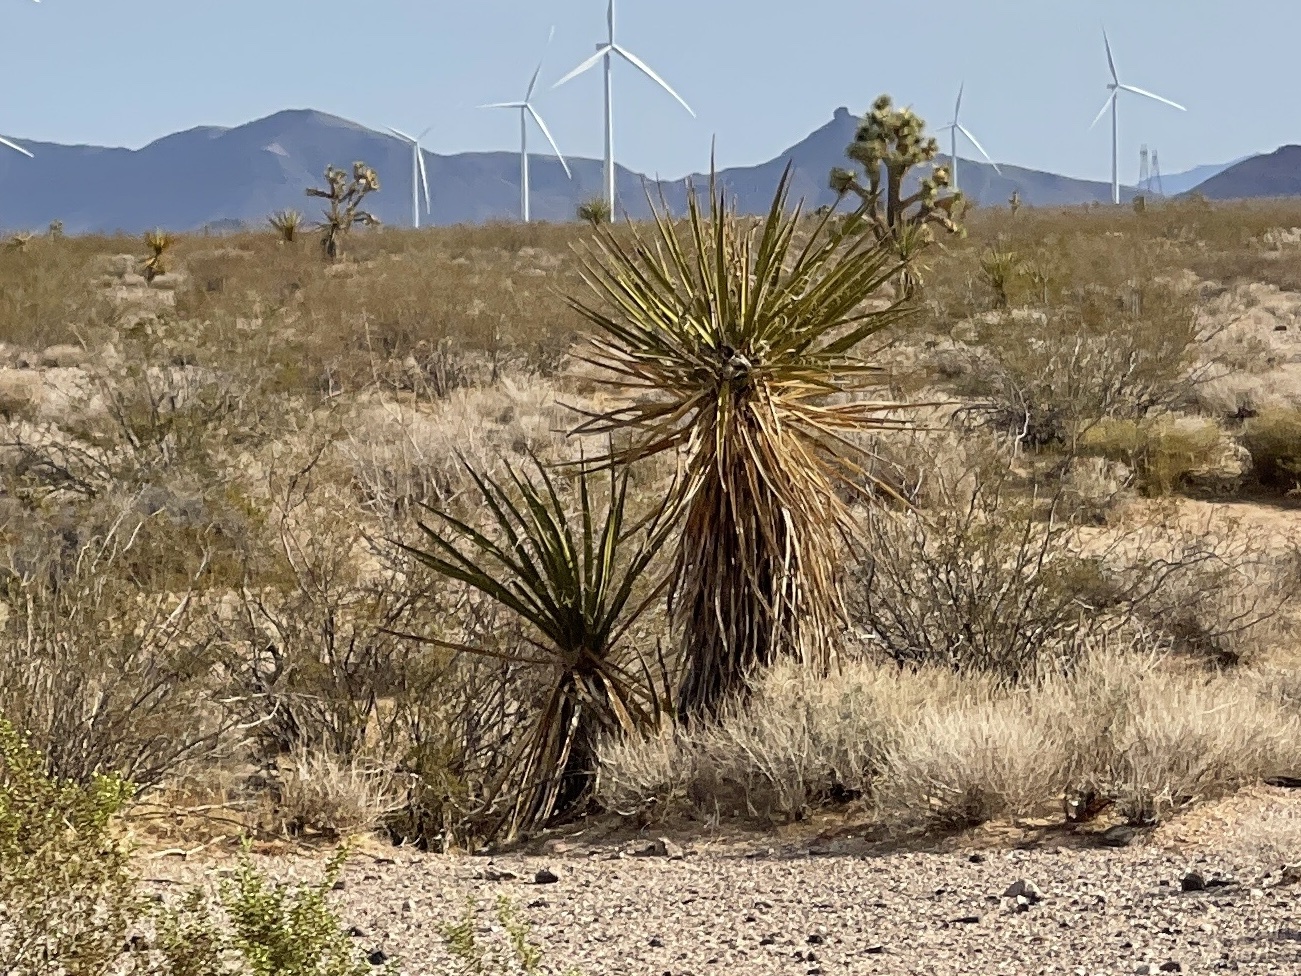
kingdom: Plantae
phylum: Tracheophyta
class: Liliopsida
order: Asparagales
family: Asparagaceae
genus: Yucca
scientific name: Yucca schidigera
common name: Mojave yucca
